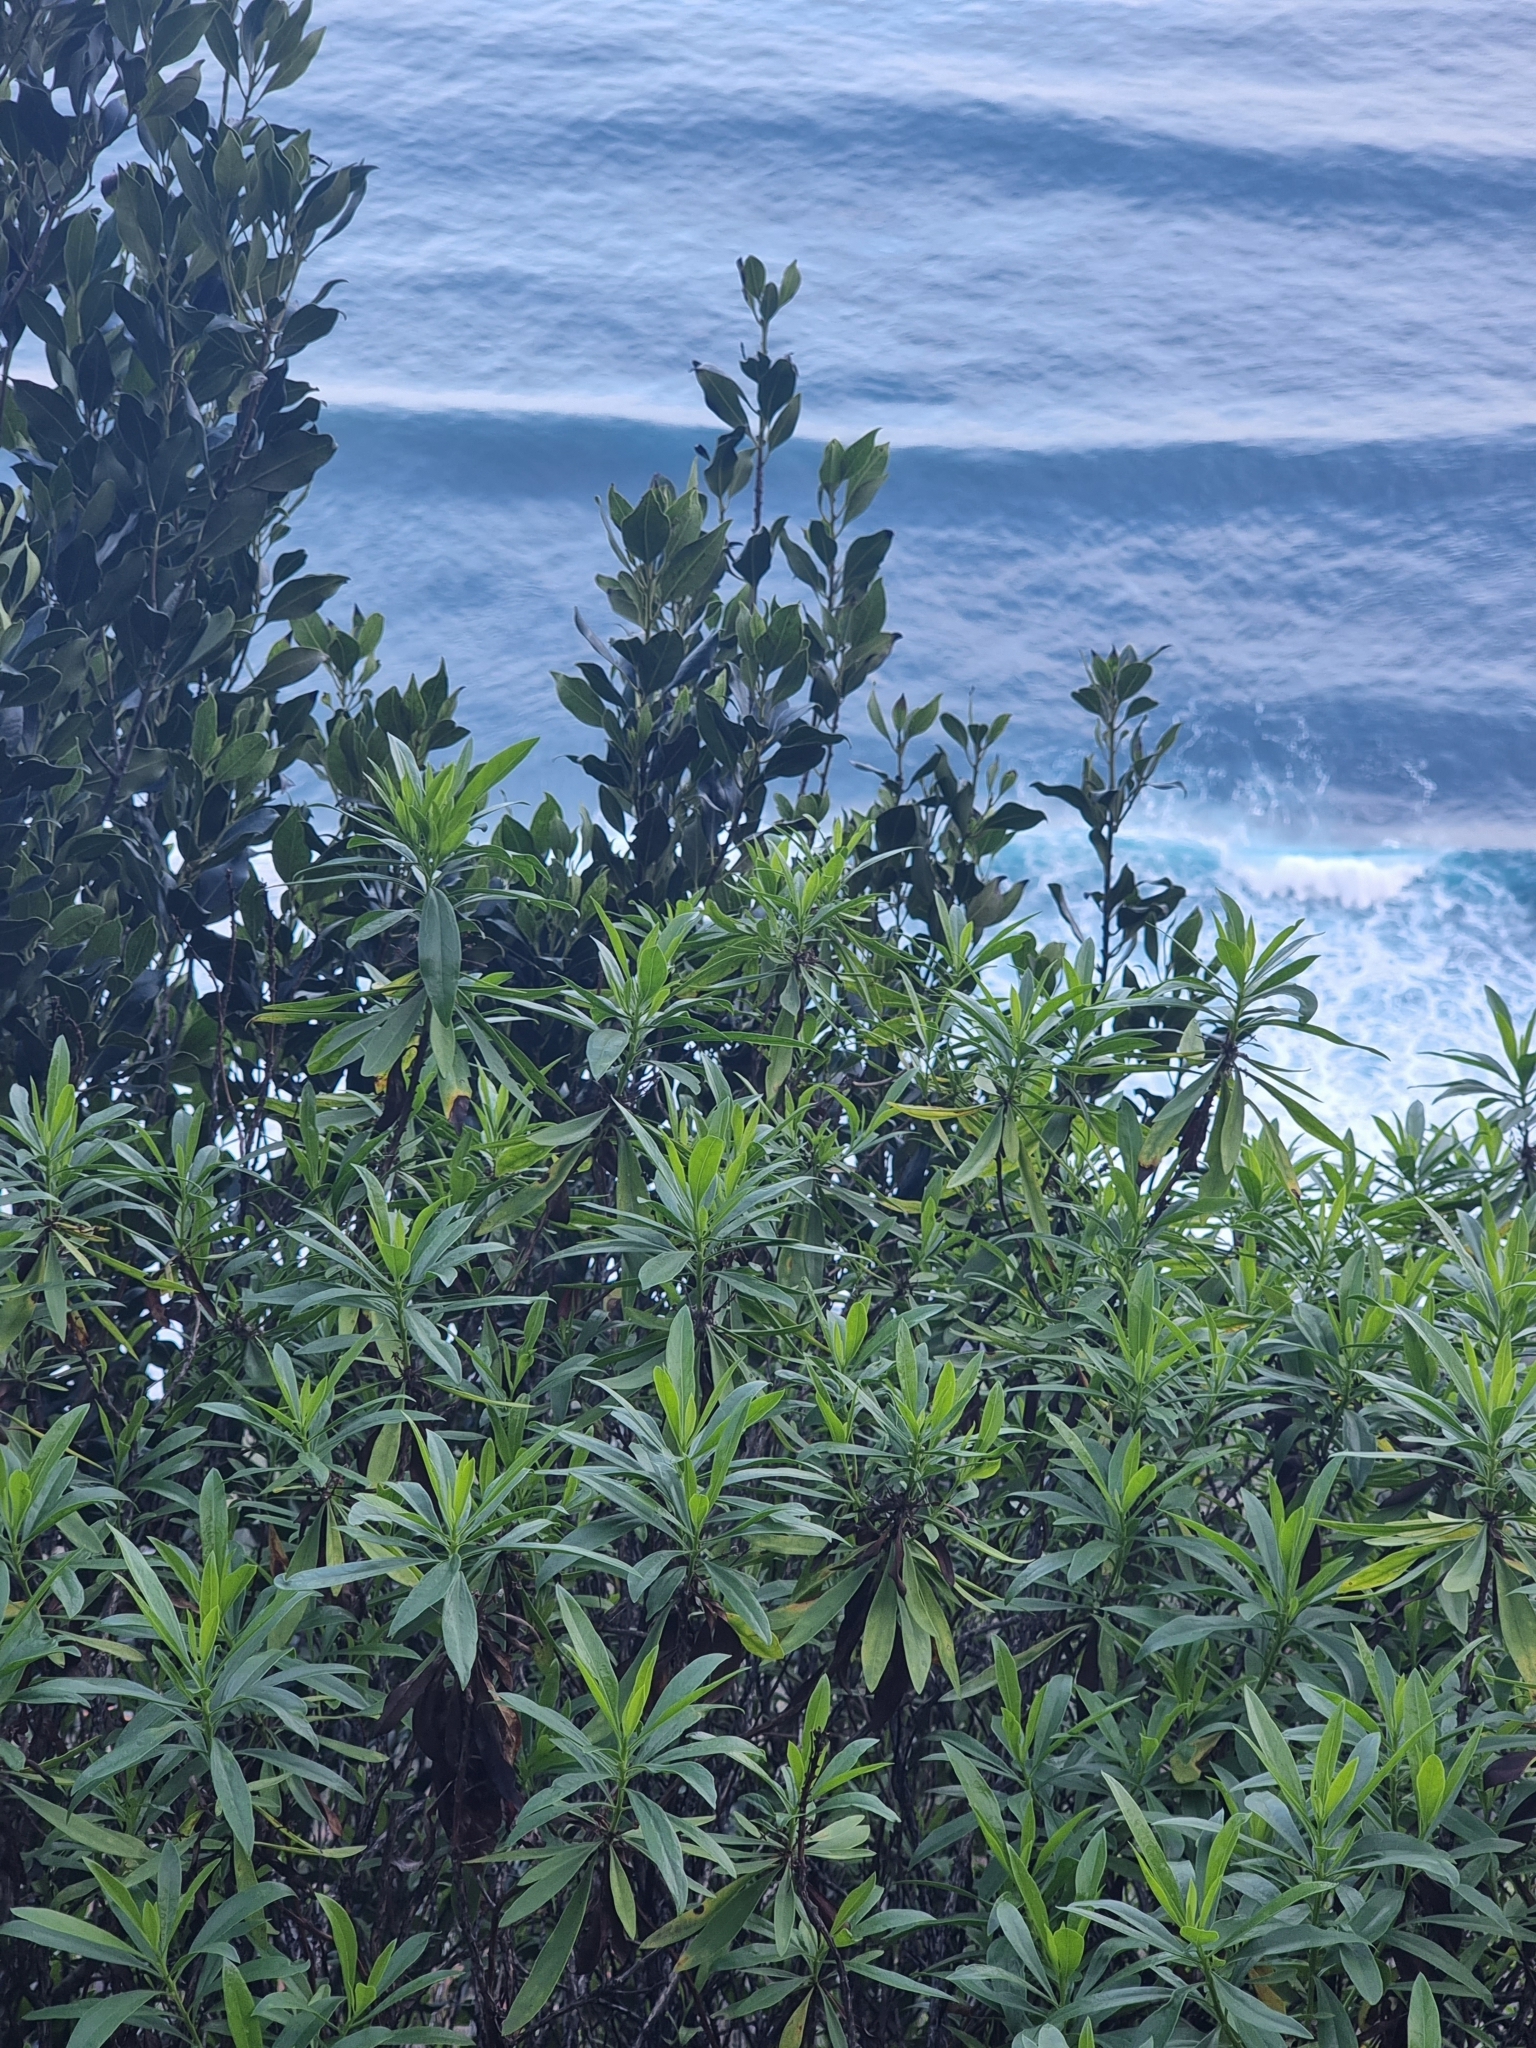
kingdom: Plantae
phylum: Tracheophyta
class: Magnoliopsida
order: Lamiales
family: Plantaginaceae
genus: Globularia
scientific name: Globularia salicina
